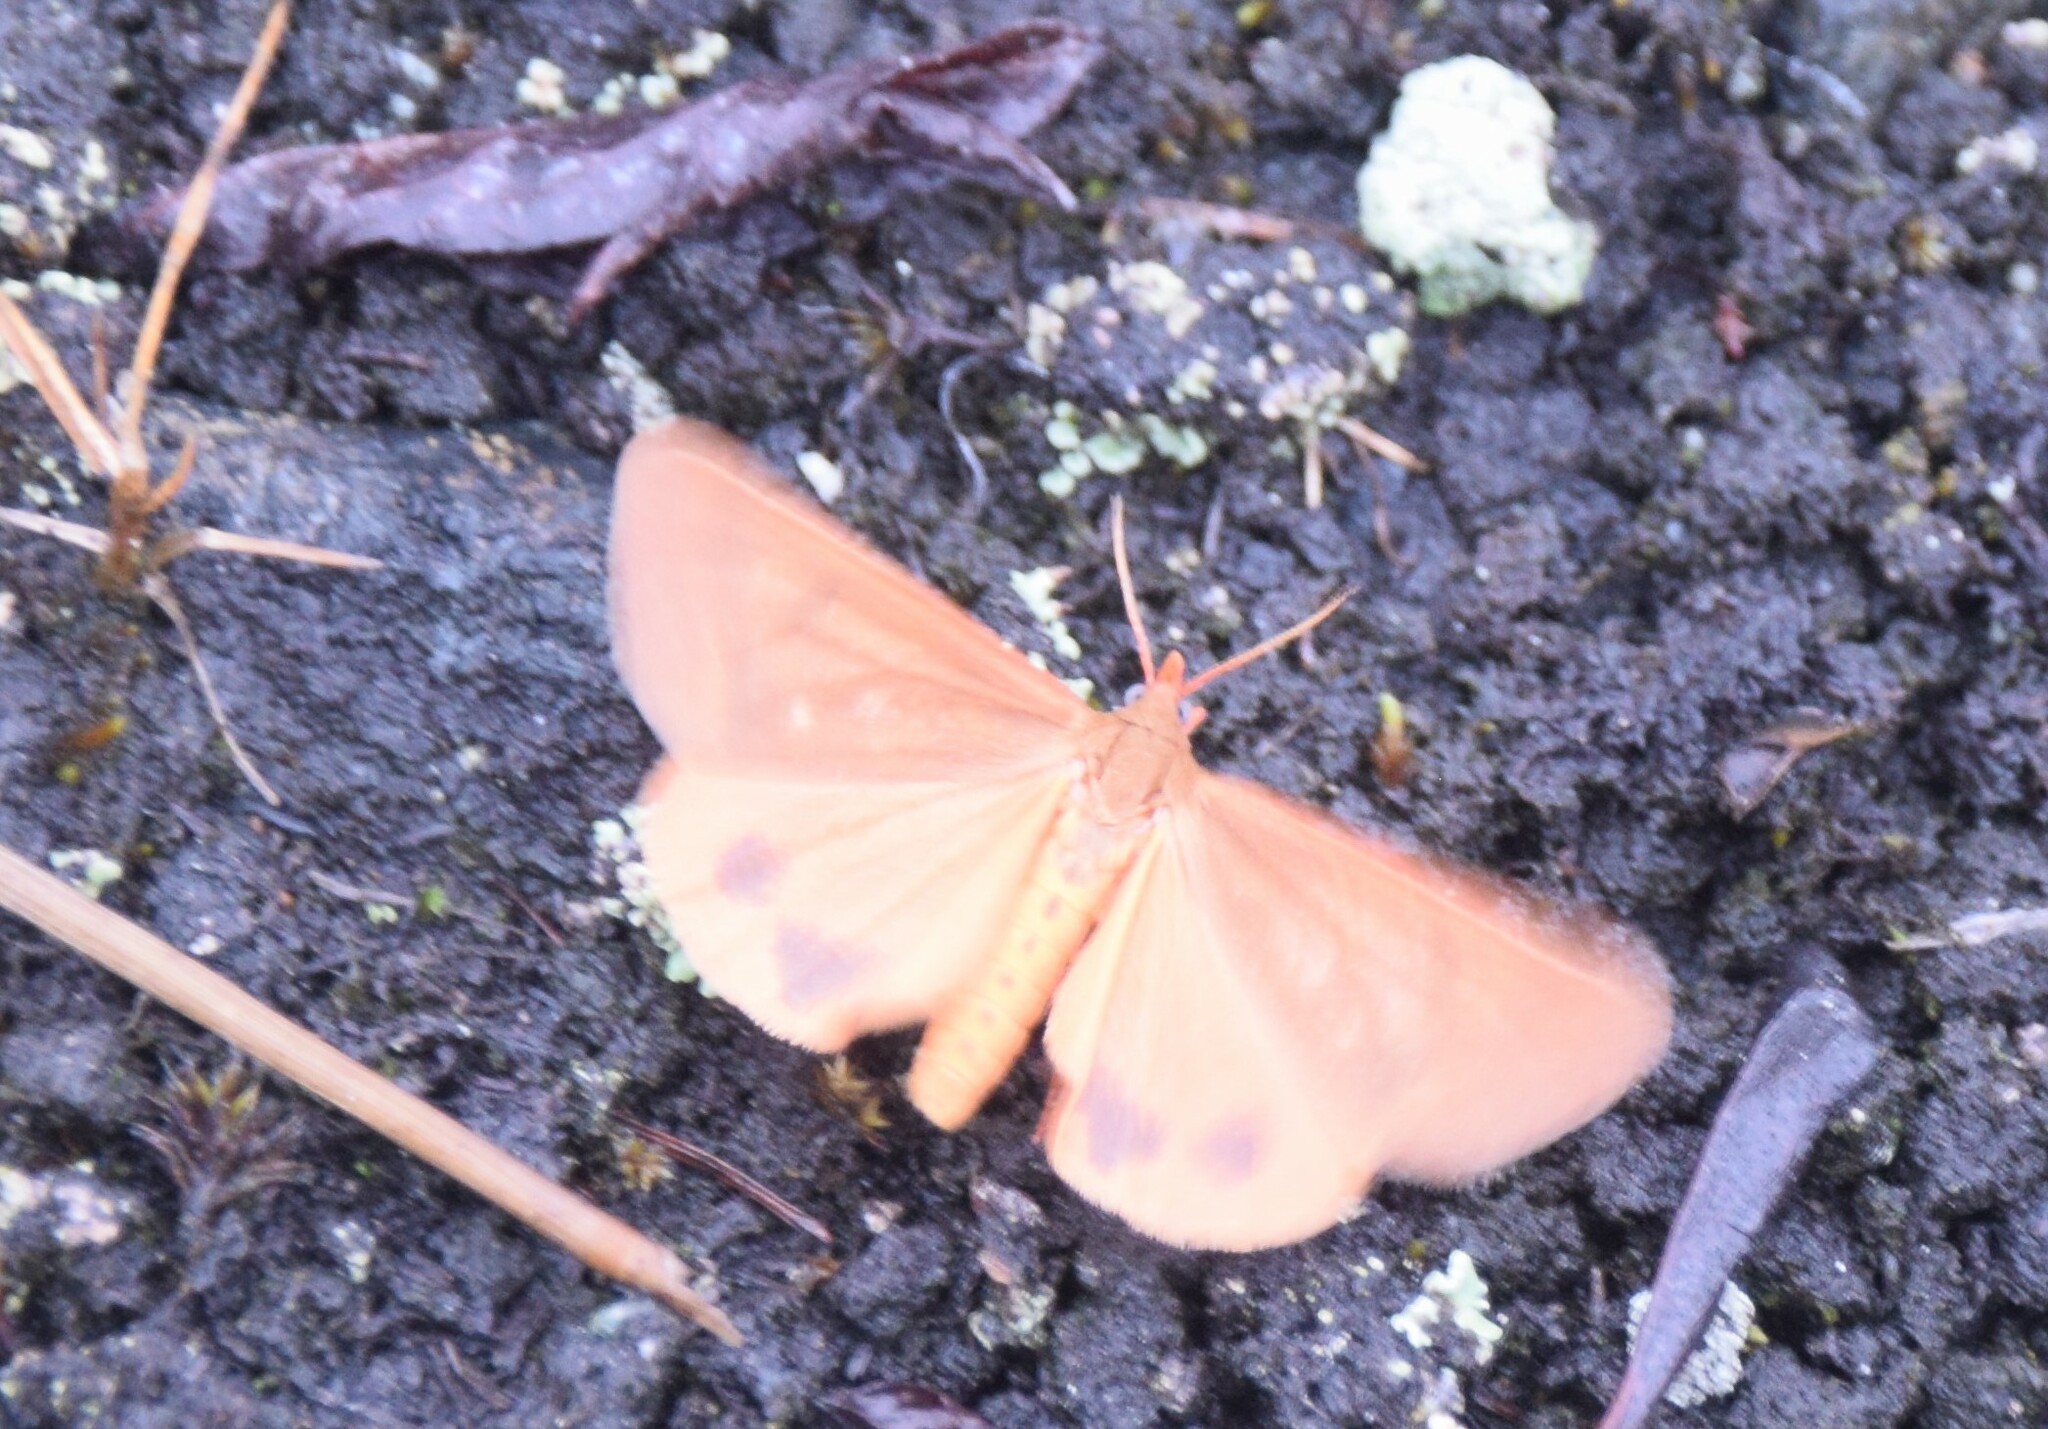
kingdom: Animalia
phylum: Arthropoda
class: Insecta
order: Lepidoptera
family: Erebidae
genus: Virbia
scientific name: Virbia ferruginosa
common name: Rusty virbia moth
